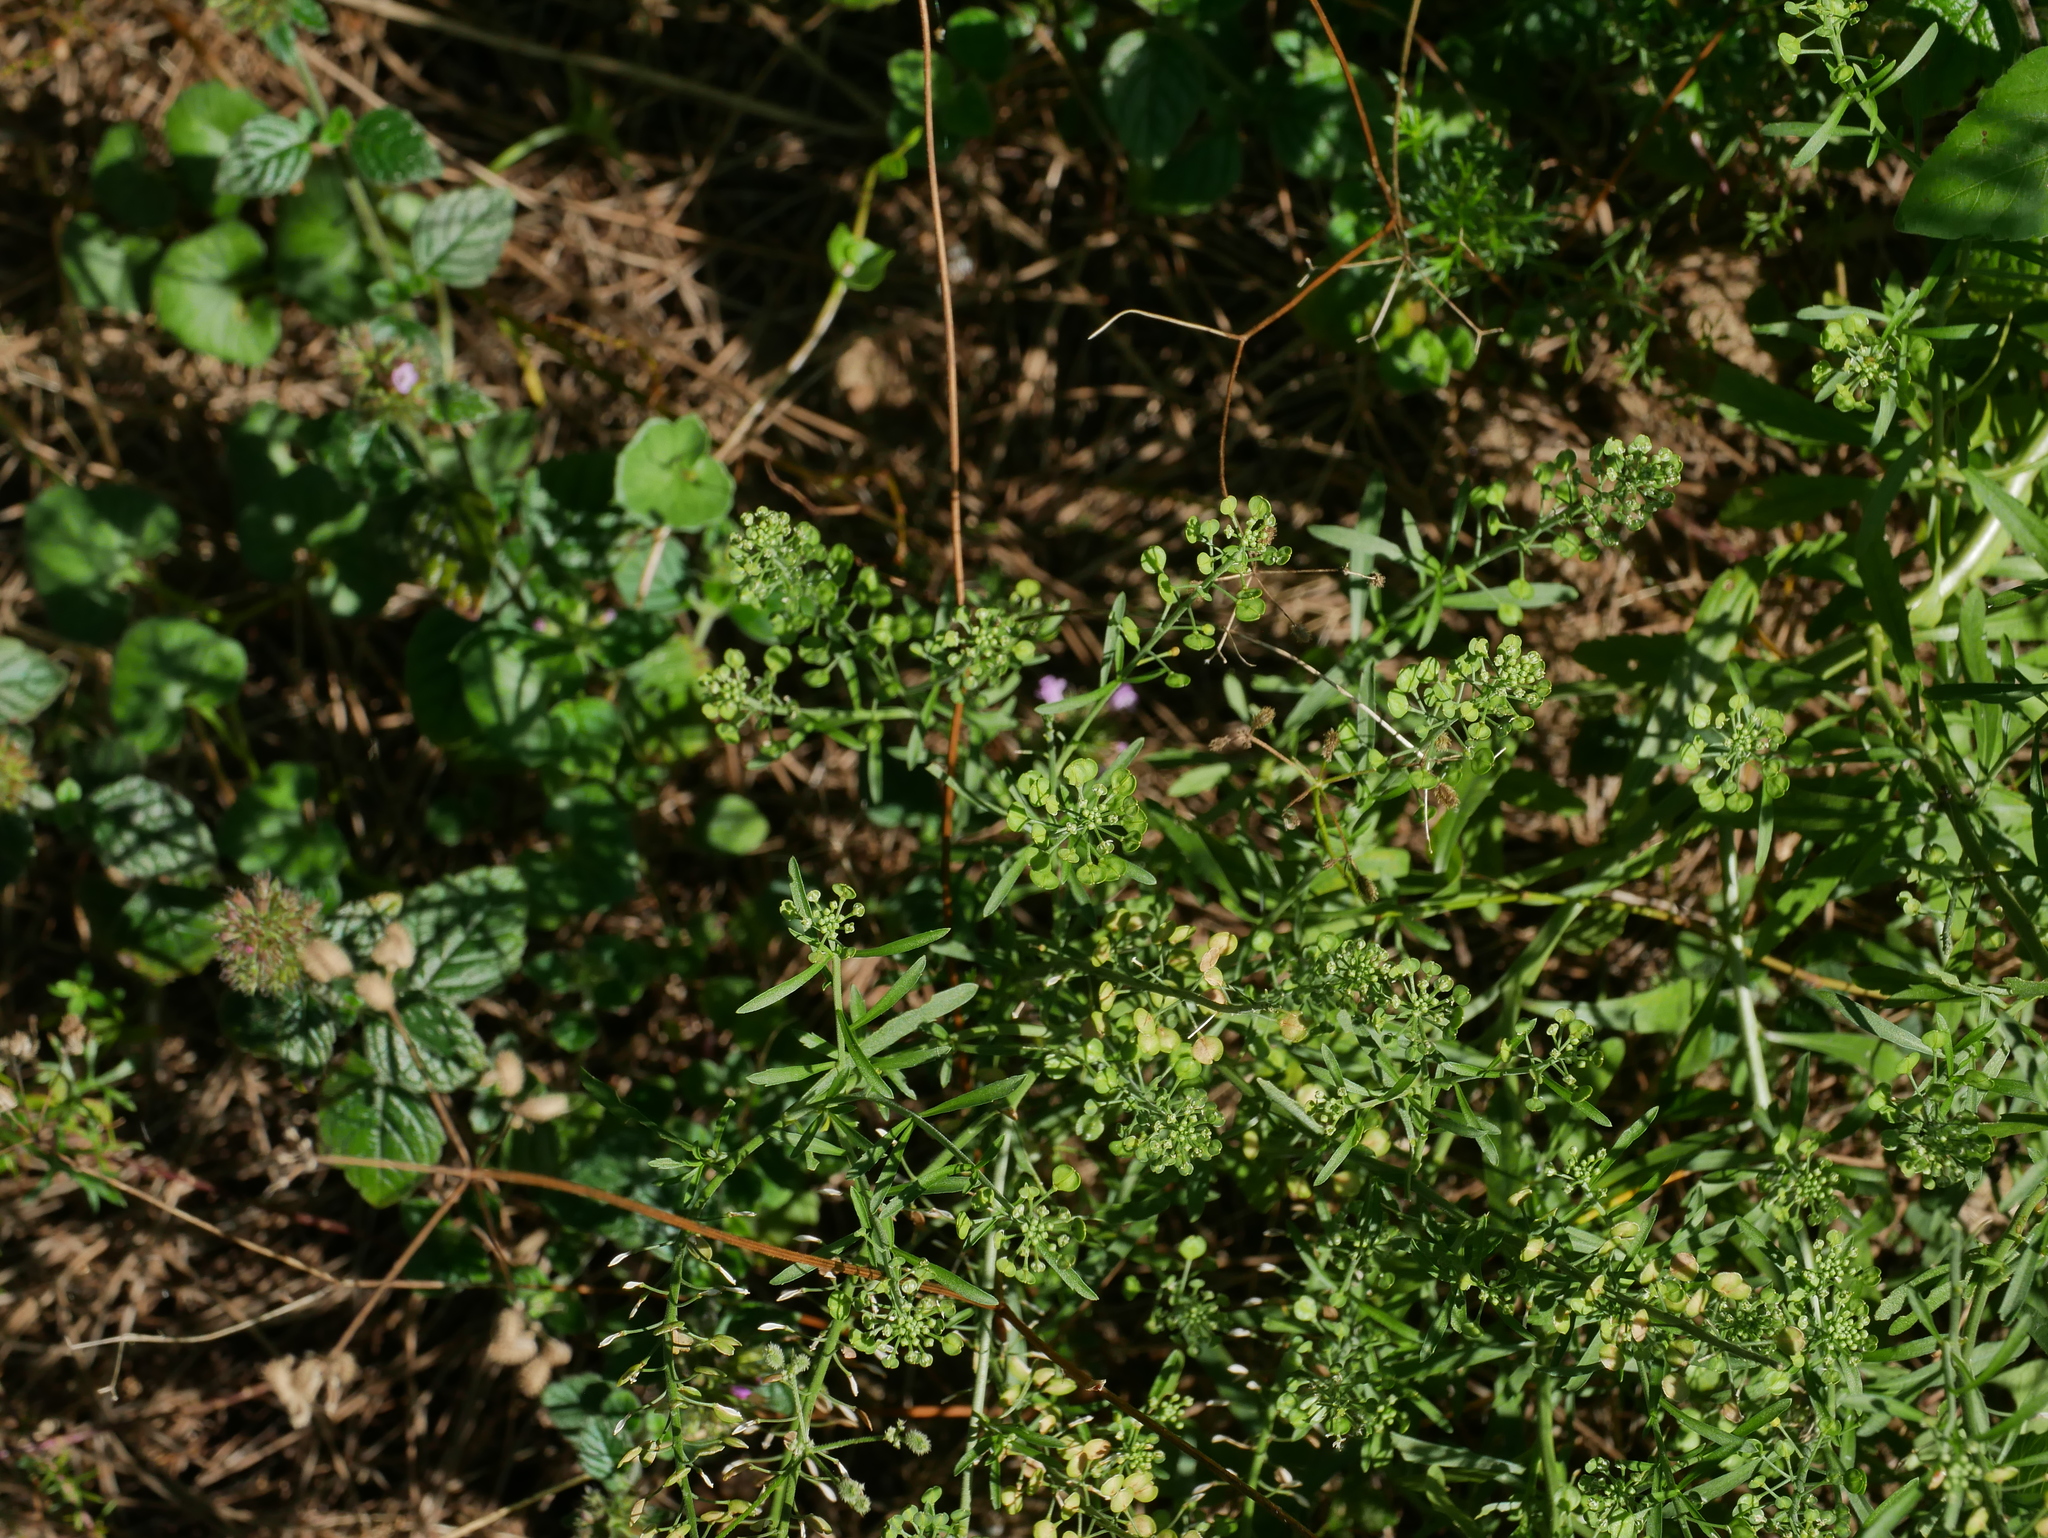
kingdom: Plantae
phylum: Tracheophyta
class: Magnoliopsida
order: Brassicales
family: Brassicaceae
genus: Lepidium
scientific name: Lepidium virginicum
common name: Least pepperwort
